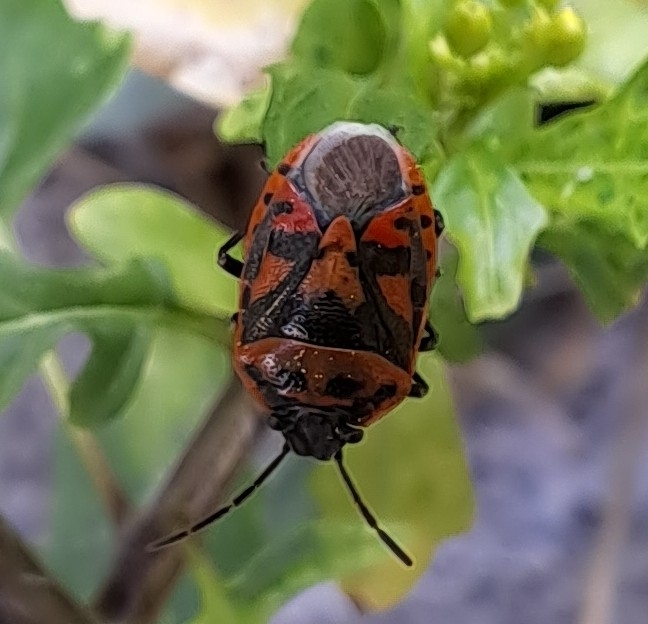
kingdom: Animalia
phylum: Arthropoda
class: Insecta
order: Hemiptera
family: Pentatomidae
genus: Eurydema
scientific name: Eurydema ornata
